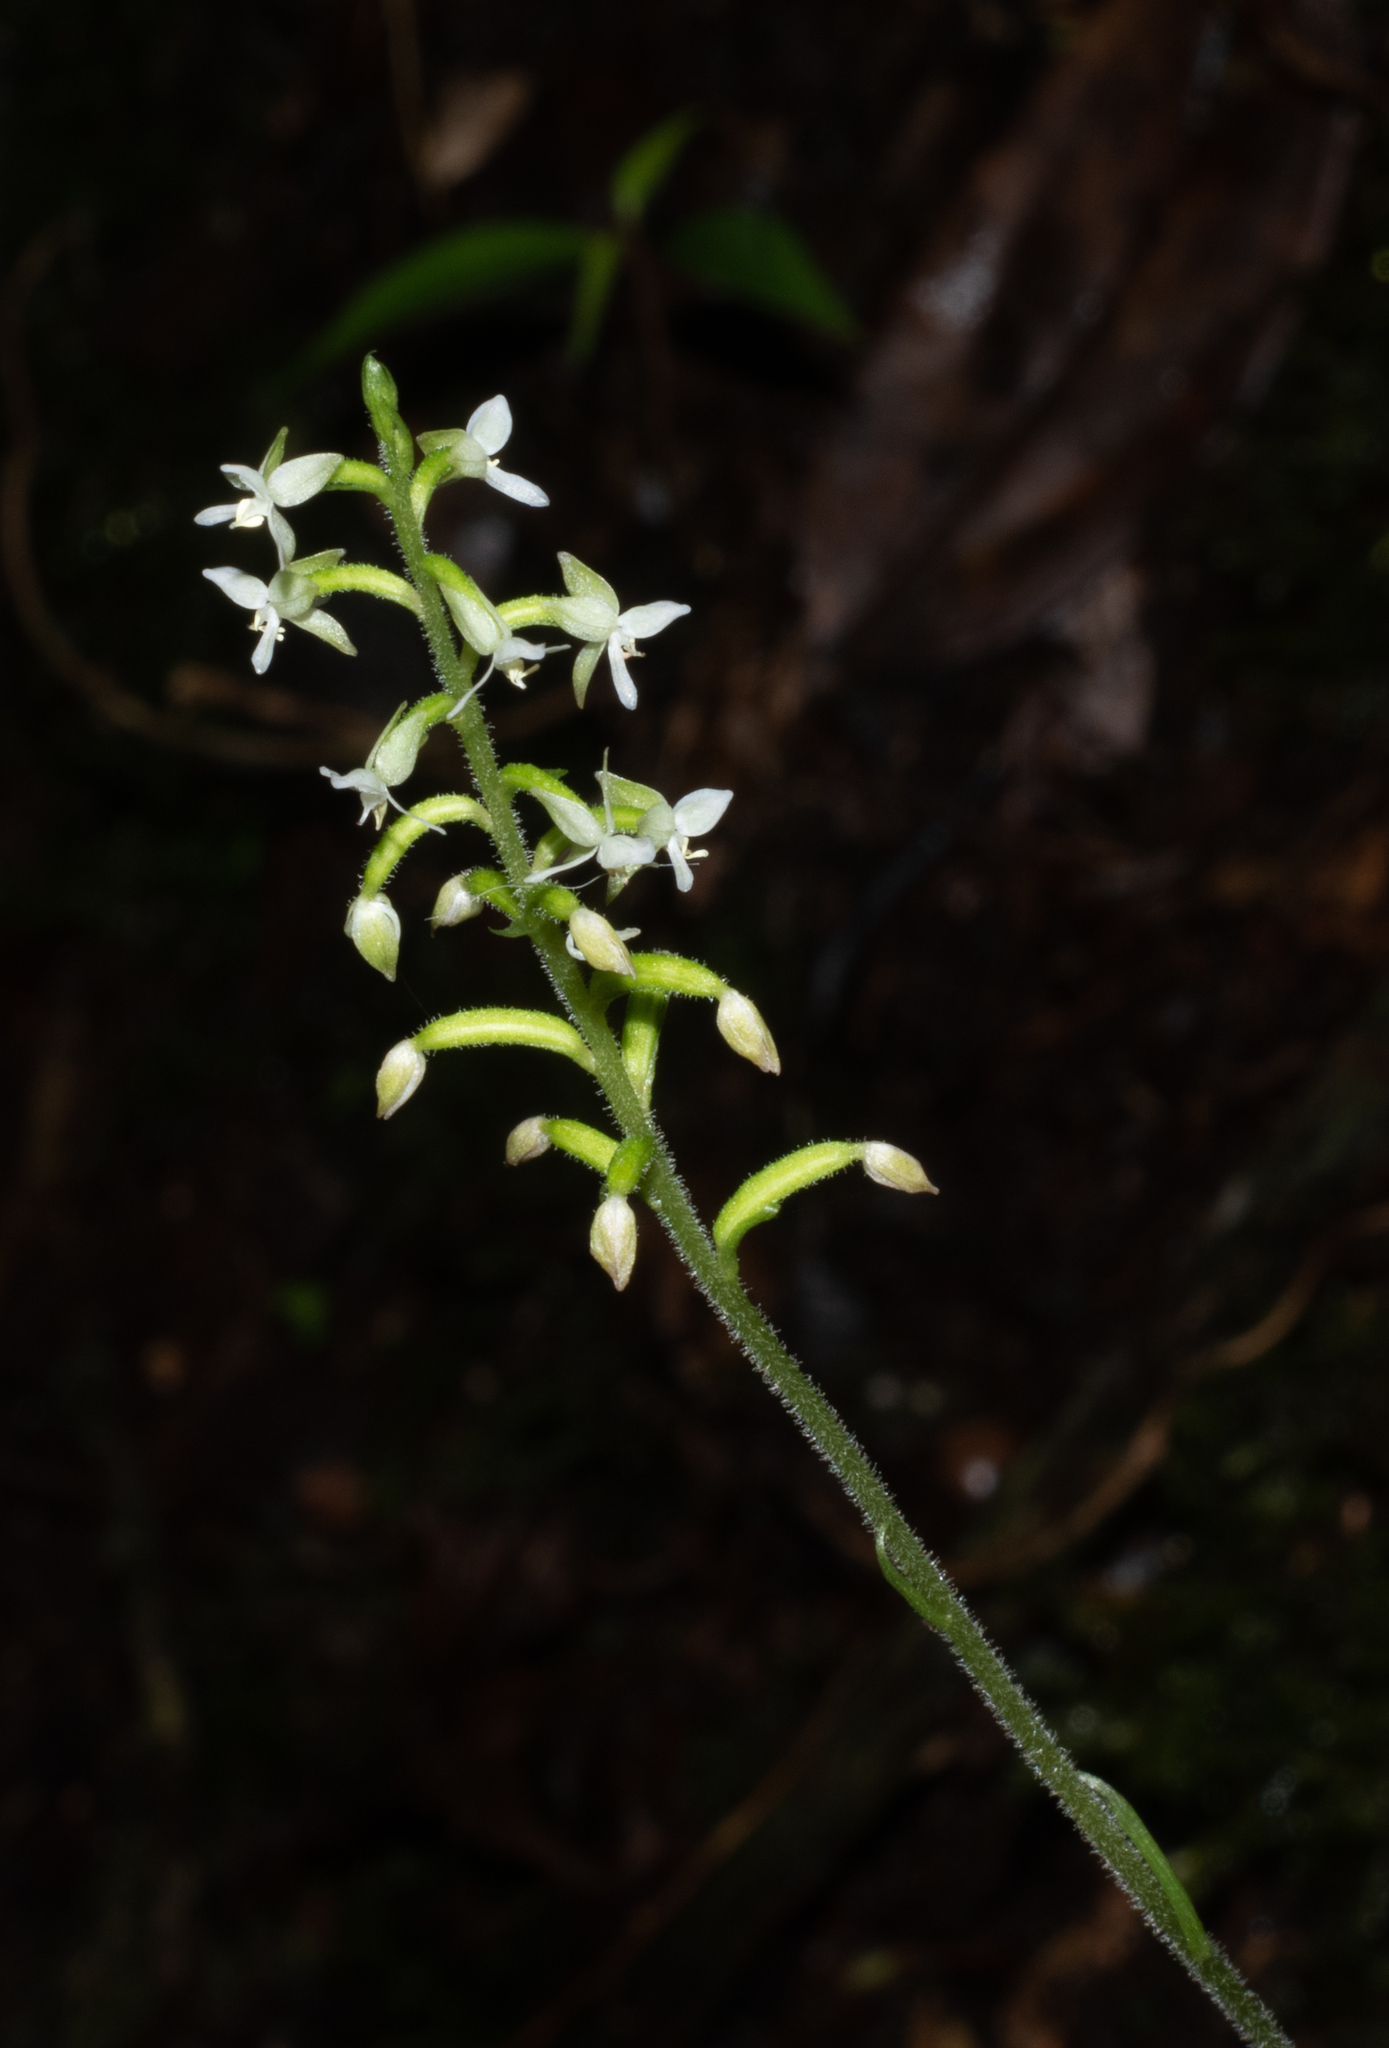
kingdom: Plantae
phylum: Tracheophyta
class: Liliopsida
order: Asparagales
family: Orchidaceae
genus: Cranichis
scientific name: Cranichis lehmannii
